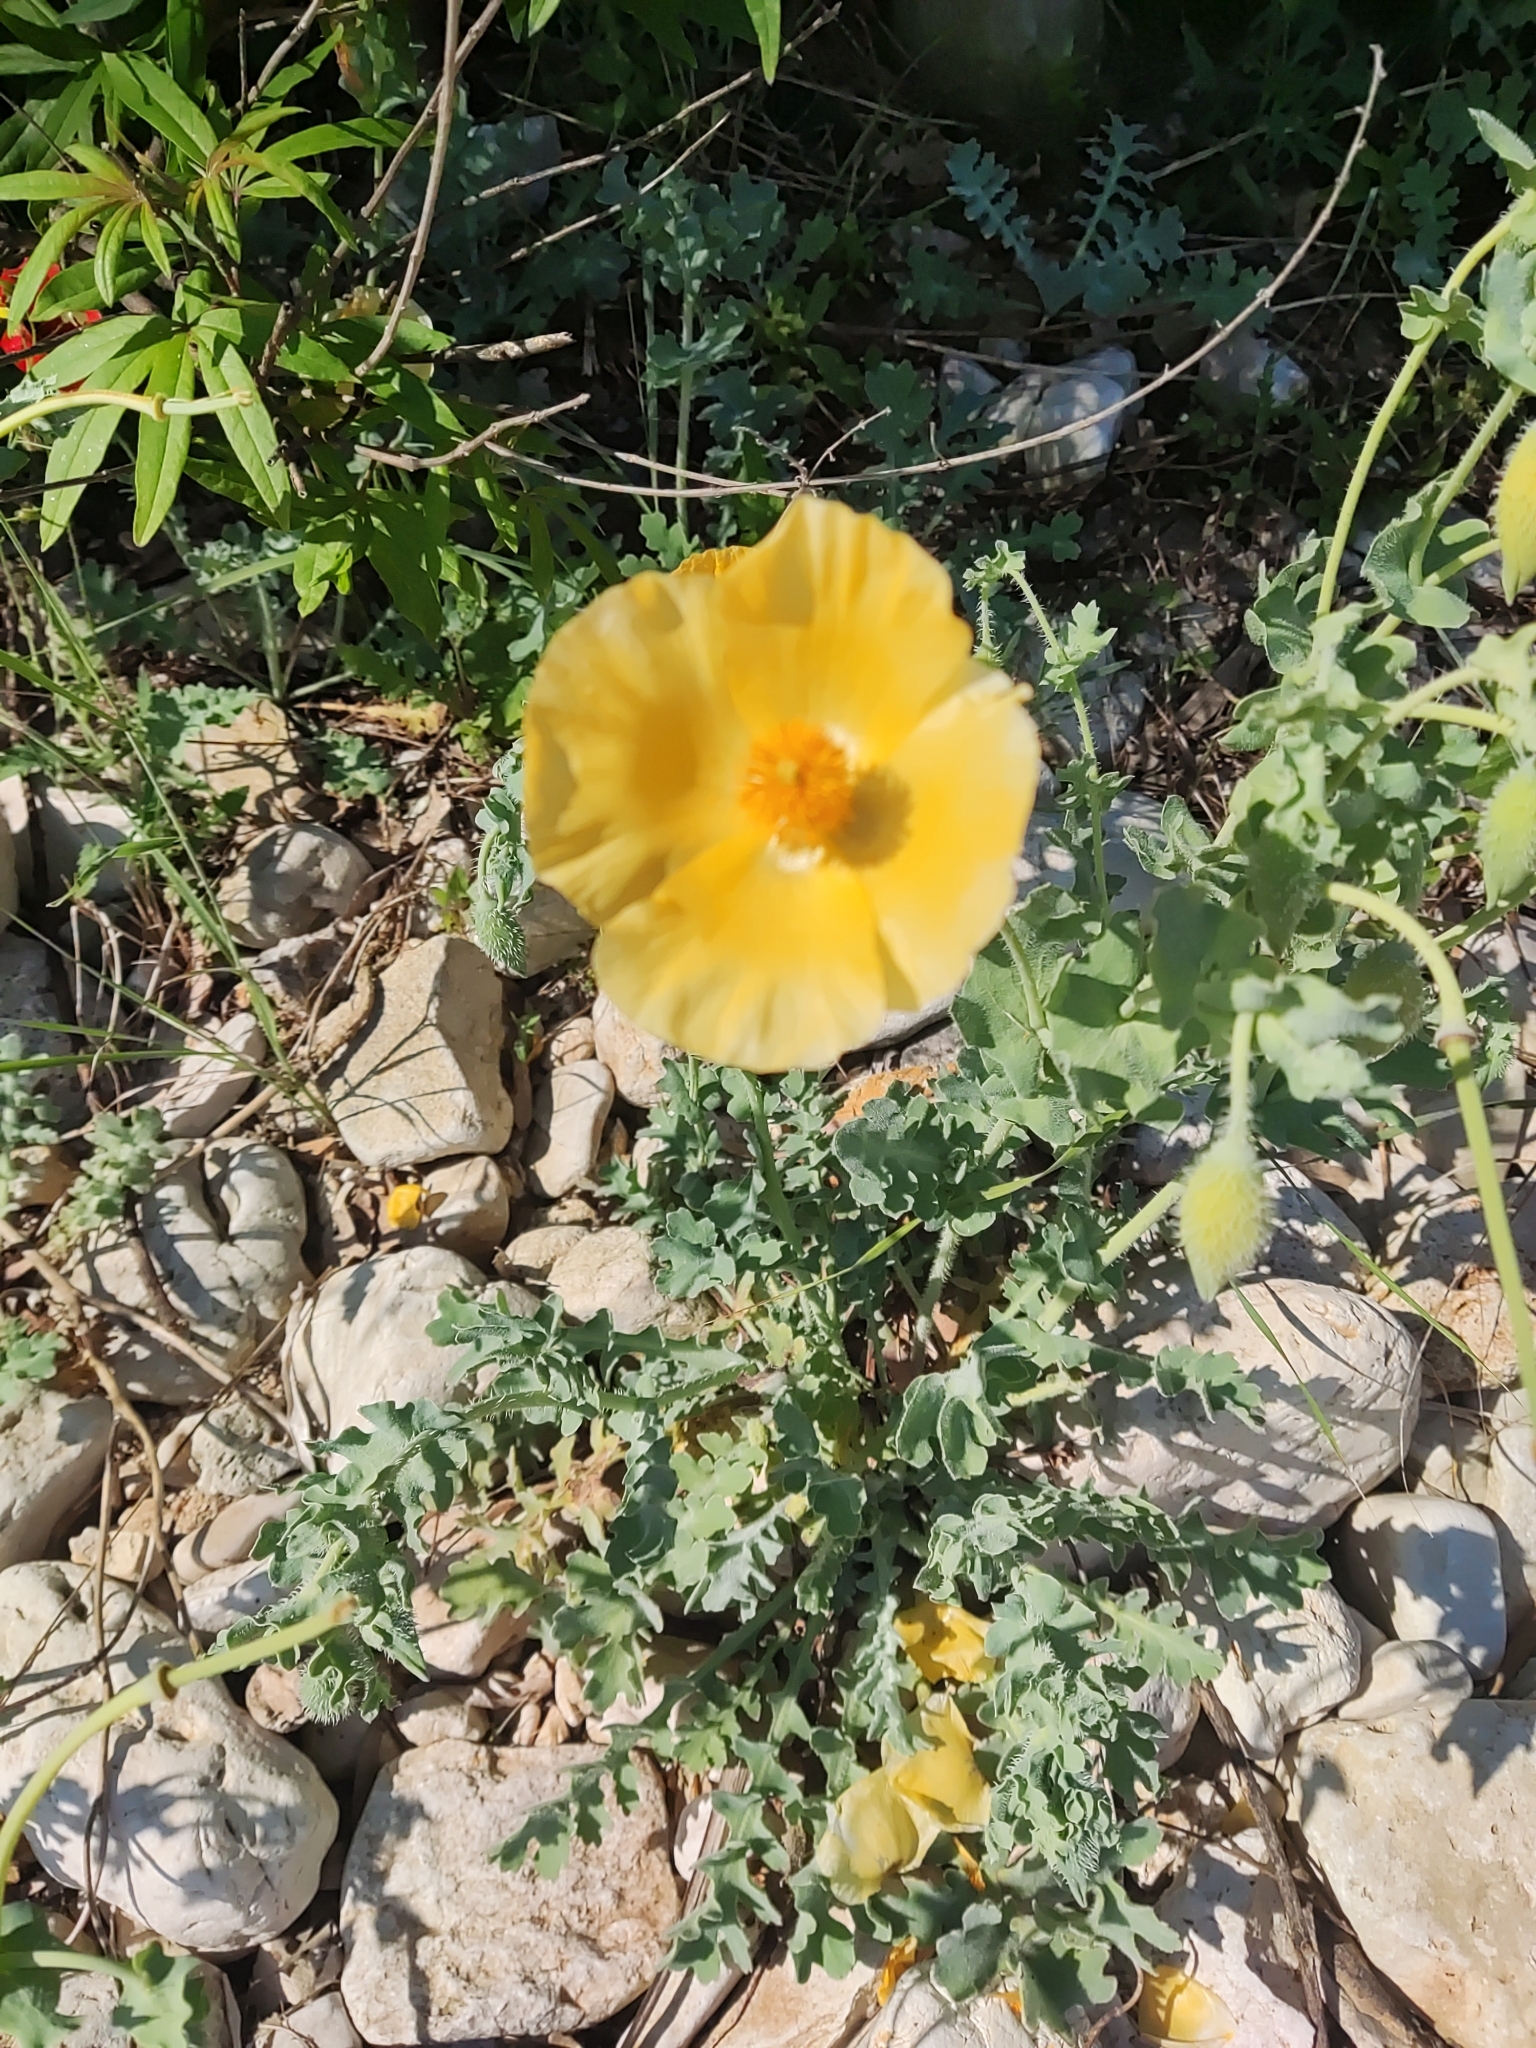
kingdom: Plantae
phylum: Tracheophyta
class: Magnoliopsida
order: Ranunculales
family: Papaveraceae
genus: Glaucium
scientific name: Glaucium flavum
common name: Yellow horned-poppy
